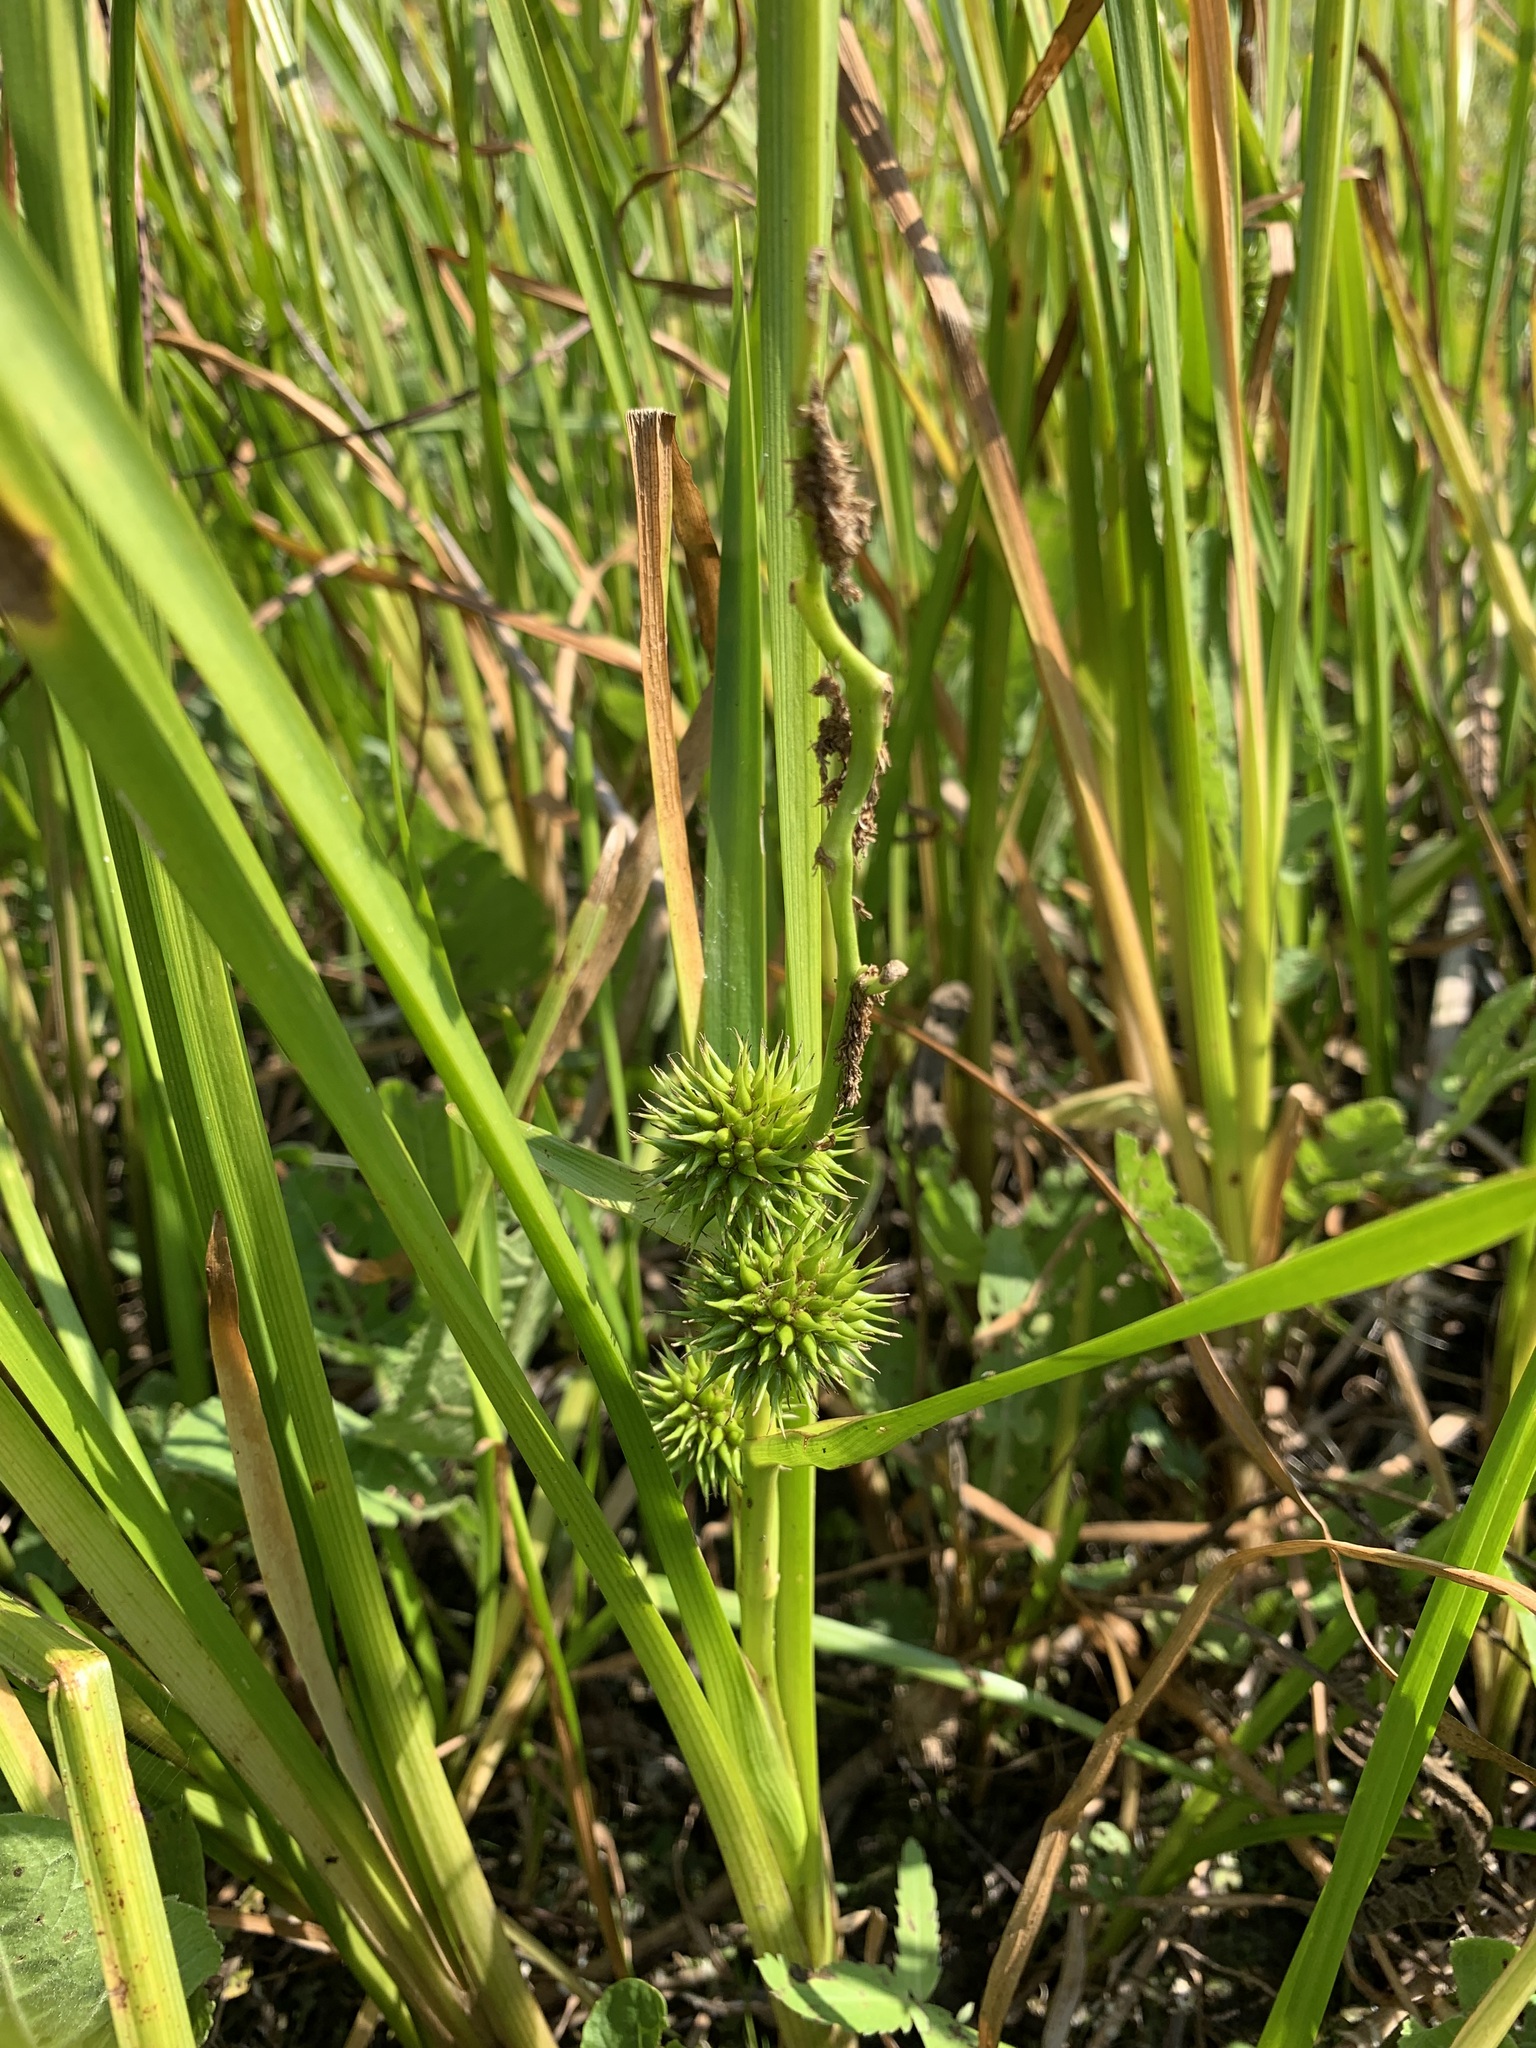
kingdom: Plantae
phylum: Tracheophyta
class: Liliopsida
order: Poales
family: Typhaceae
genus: Sparganium
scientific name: Sparganium emersum
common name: Unbranched bur-reed
